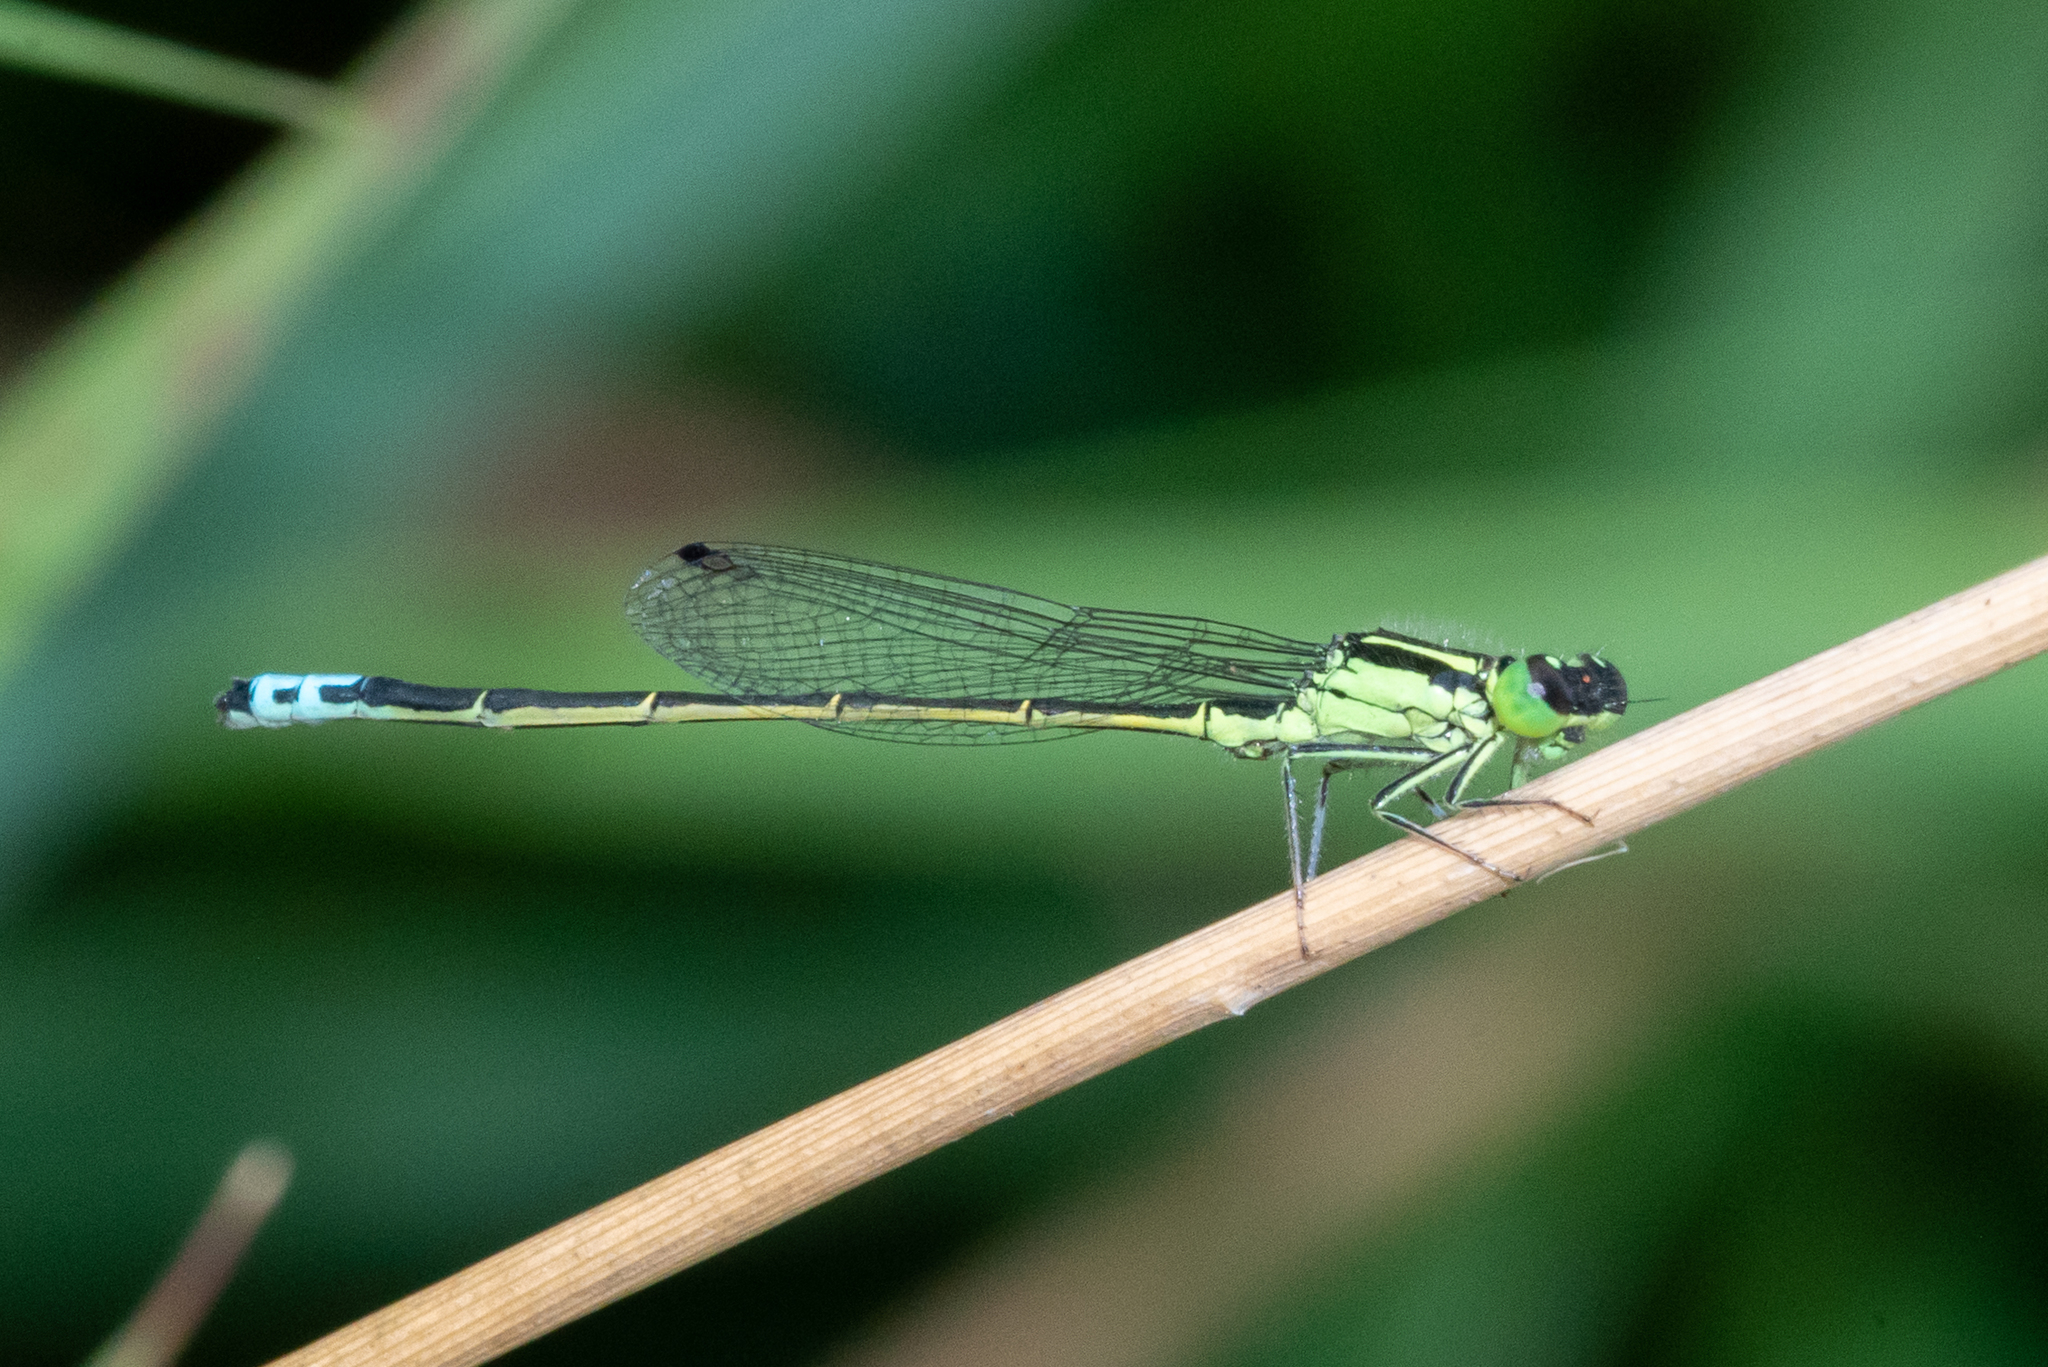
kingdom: Animalia
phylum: Arthropoda
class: Insecta
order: Odonata
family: Coenagrionidae
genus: Ischnura
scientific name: Ischnura verticalis
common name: Eastern forktail
